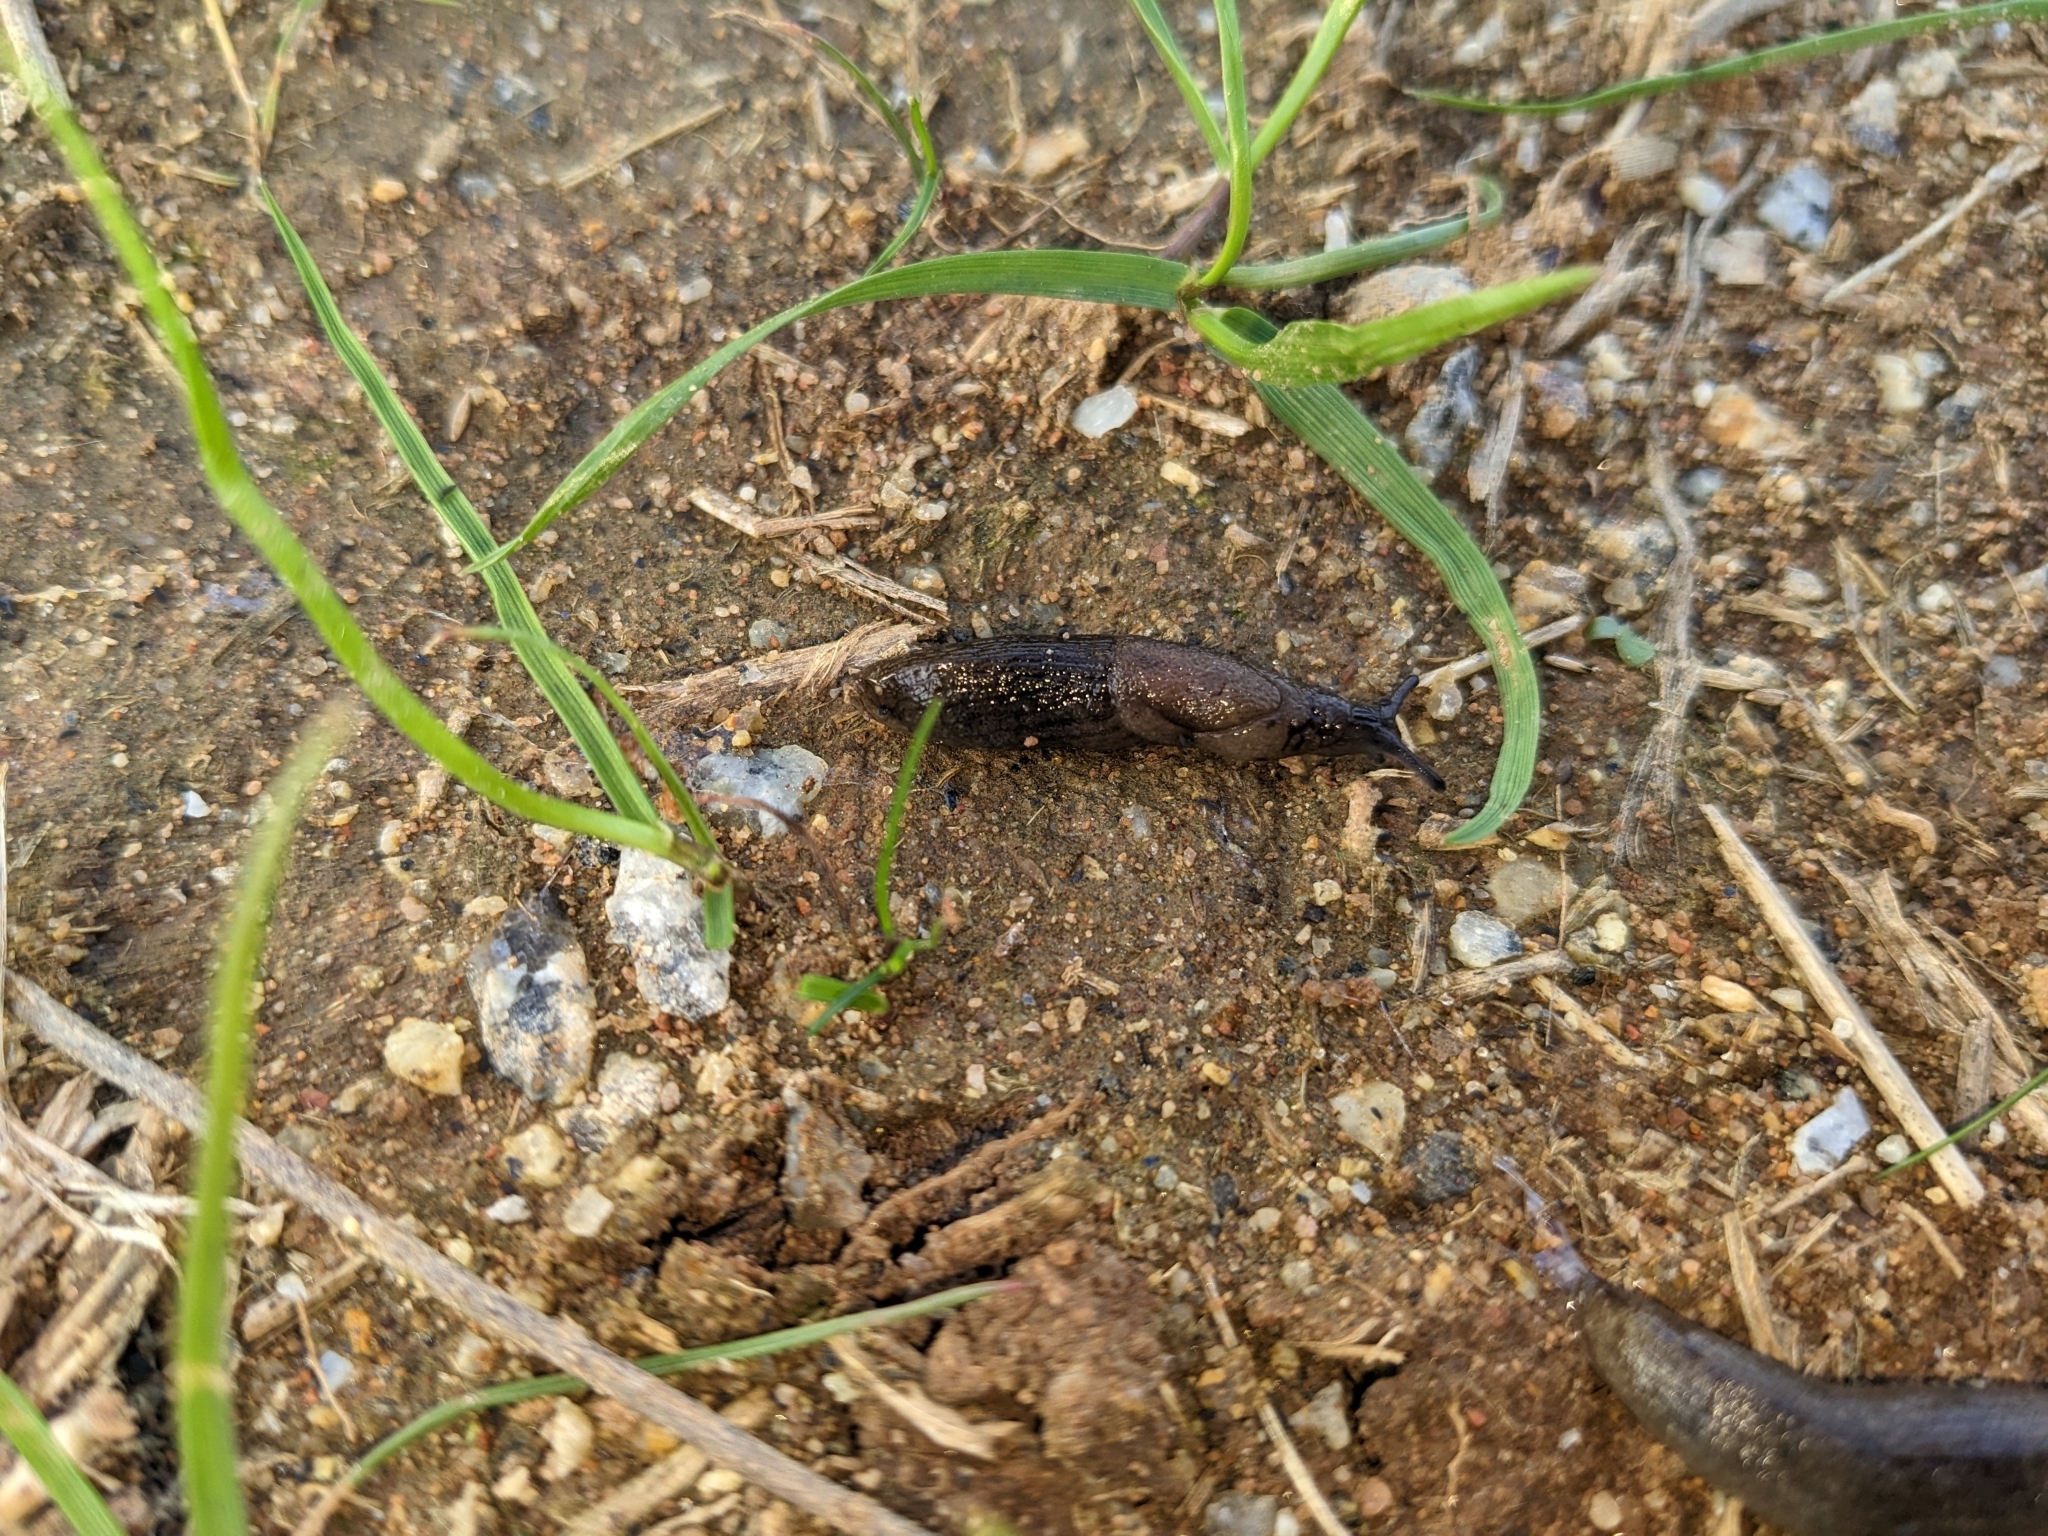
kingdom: Animalia
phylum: Mollusca
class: Gastropoda
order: Stylommatophora
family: Milacidae
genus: Milax
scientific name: Milax gagates
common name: Greenhouse slug
